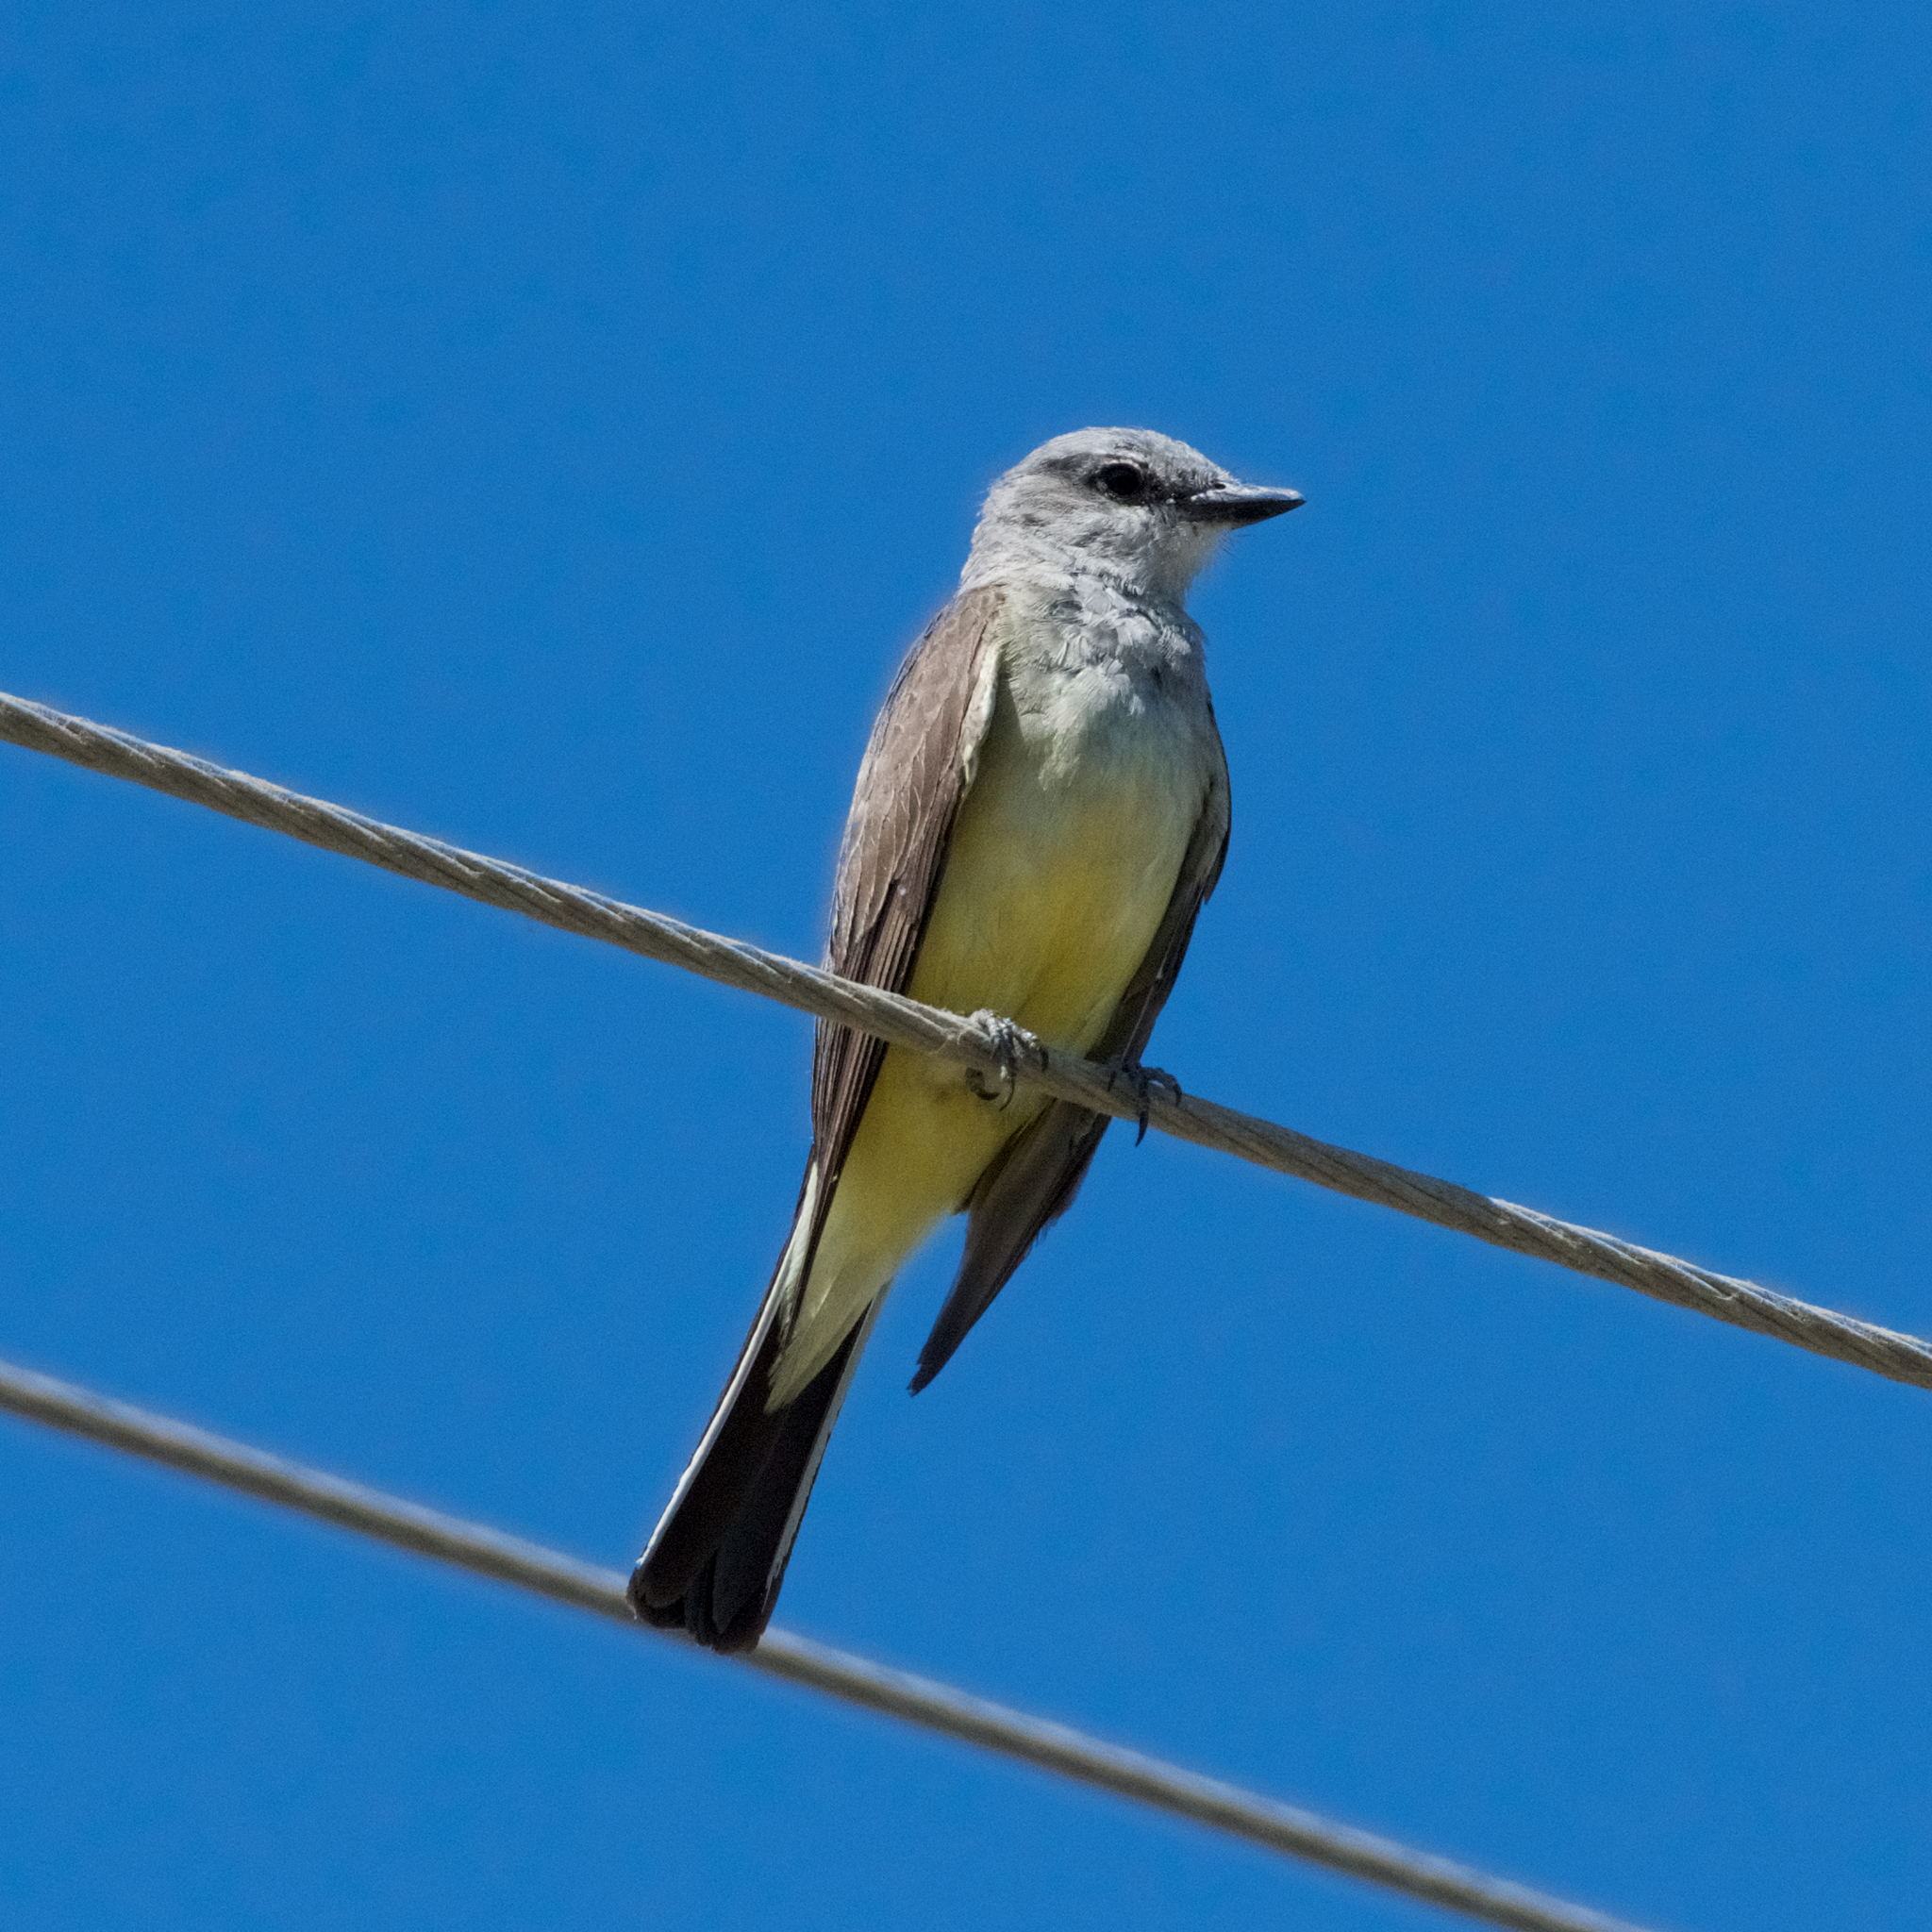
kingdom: Animalia
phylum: Chordata
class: Aves
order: Passeriformes
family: Tyrannidae
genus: Tyrannus
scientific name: Tyrannus verticalis
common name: Western kingbird
